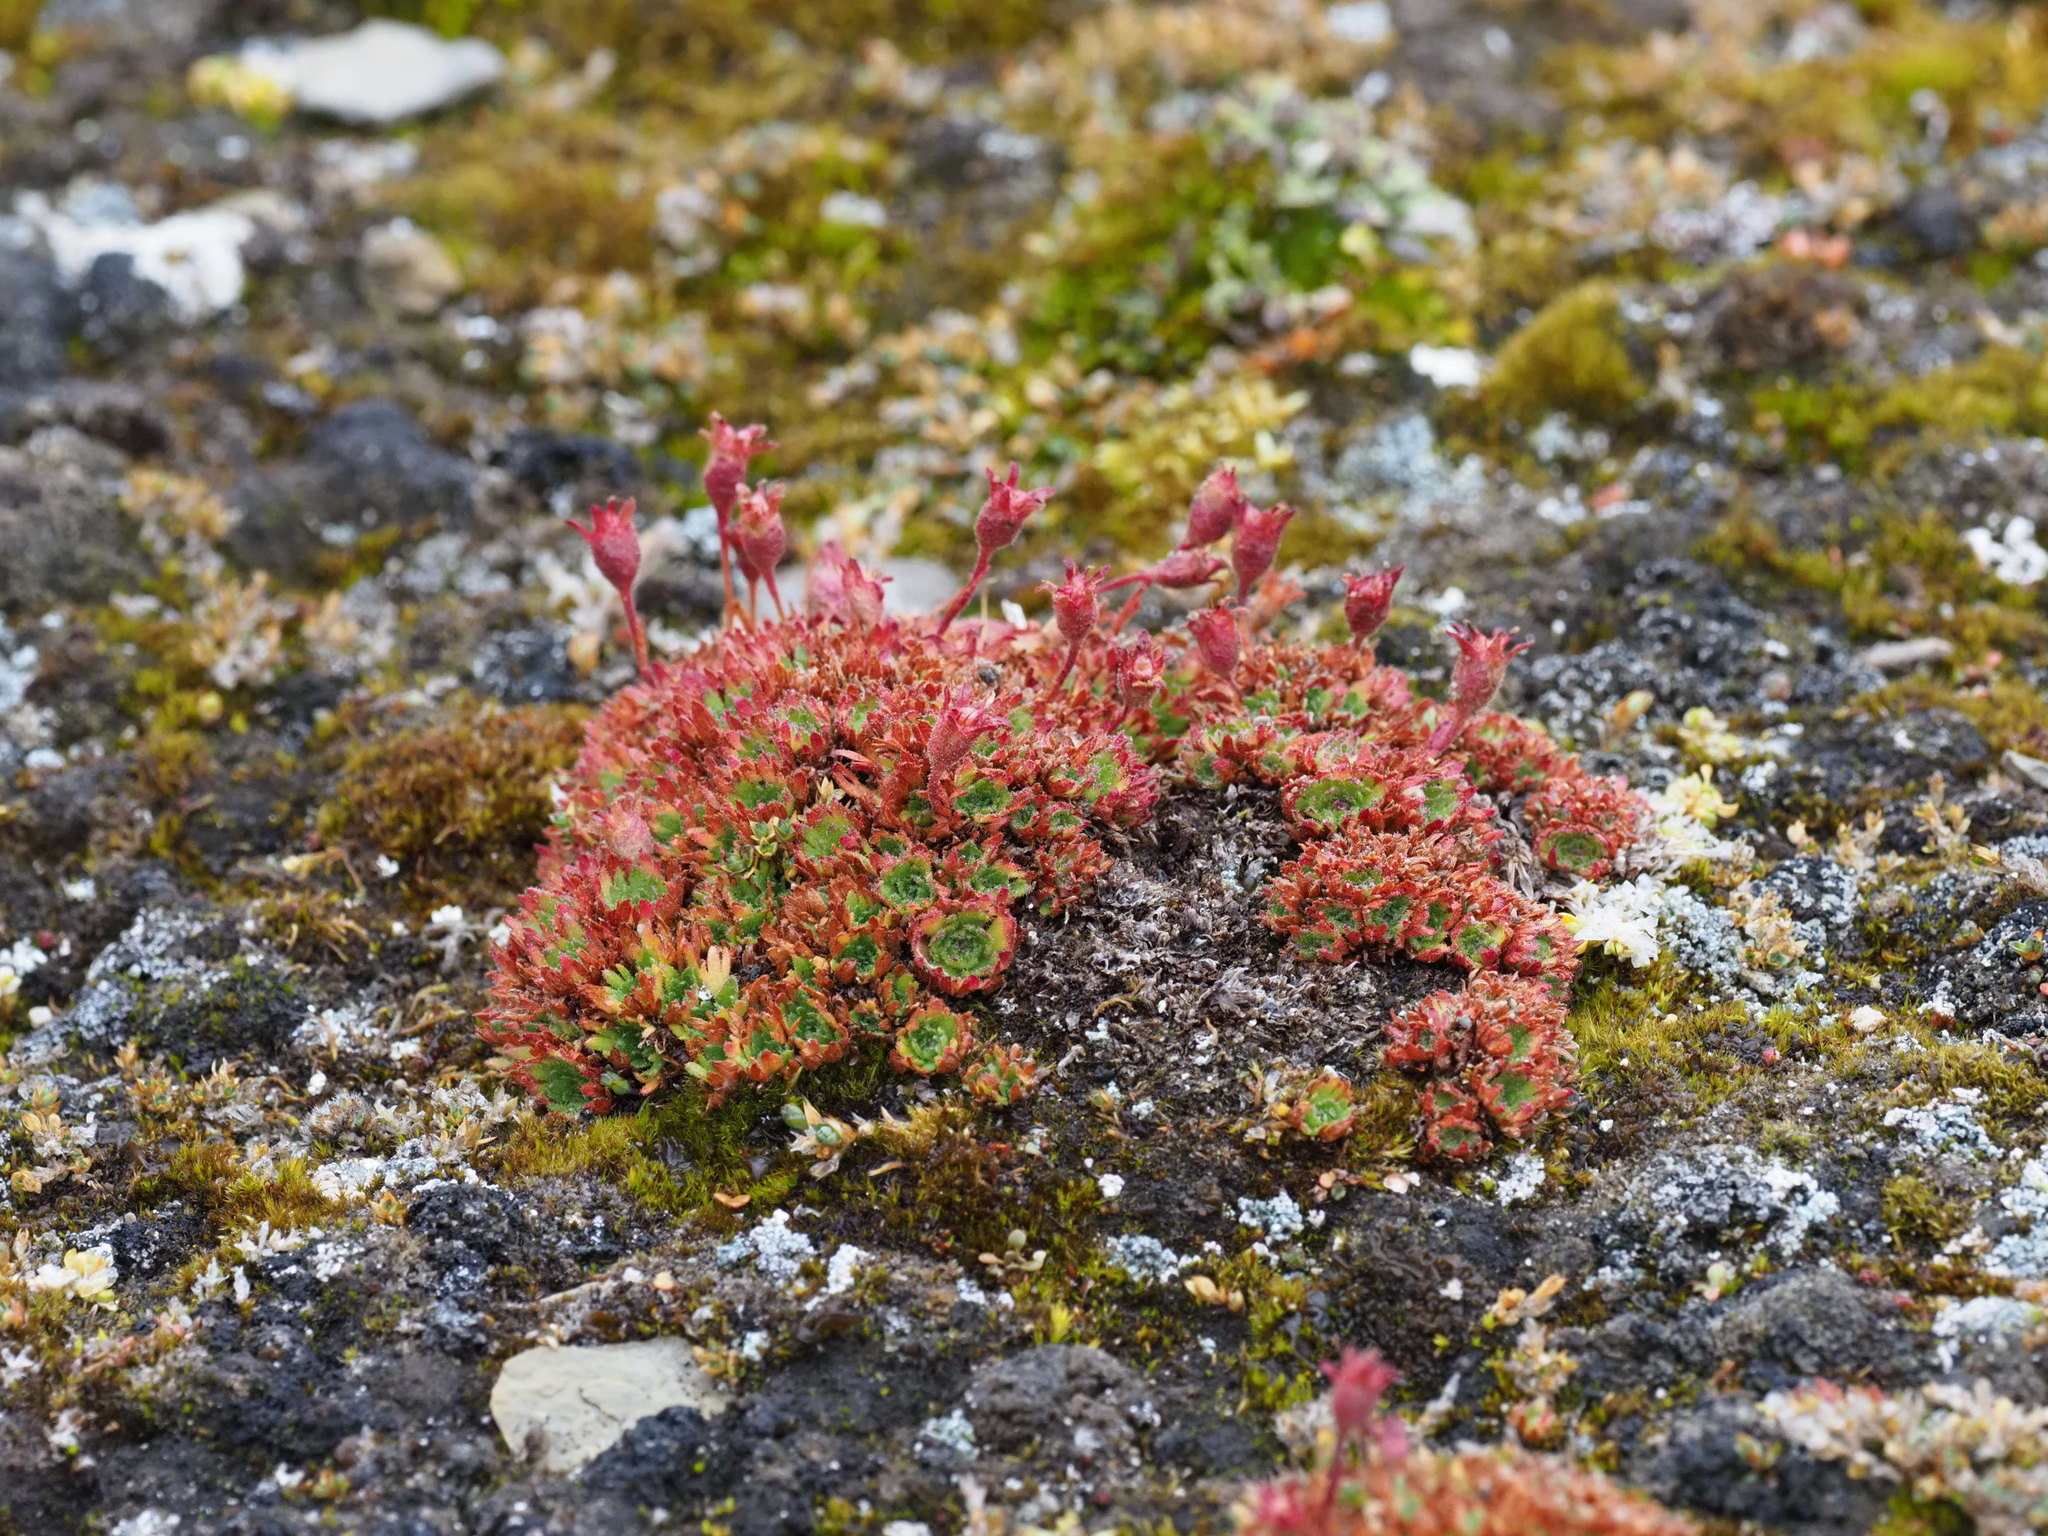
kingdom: Plantae
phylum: Tracheophyta
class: Magnoliopsida
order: Saxifragales
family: Saxifragaceae
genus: Saxifraga
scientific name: Saxifraga cespitosa
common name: Tufted saxifrage
